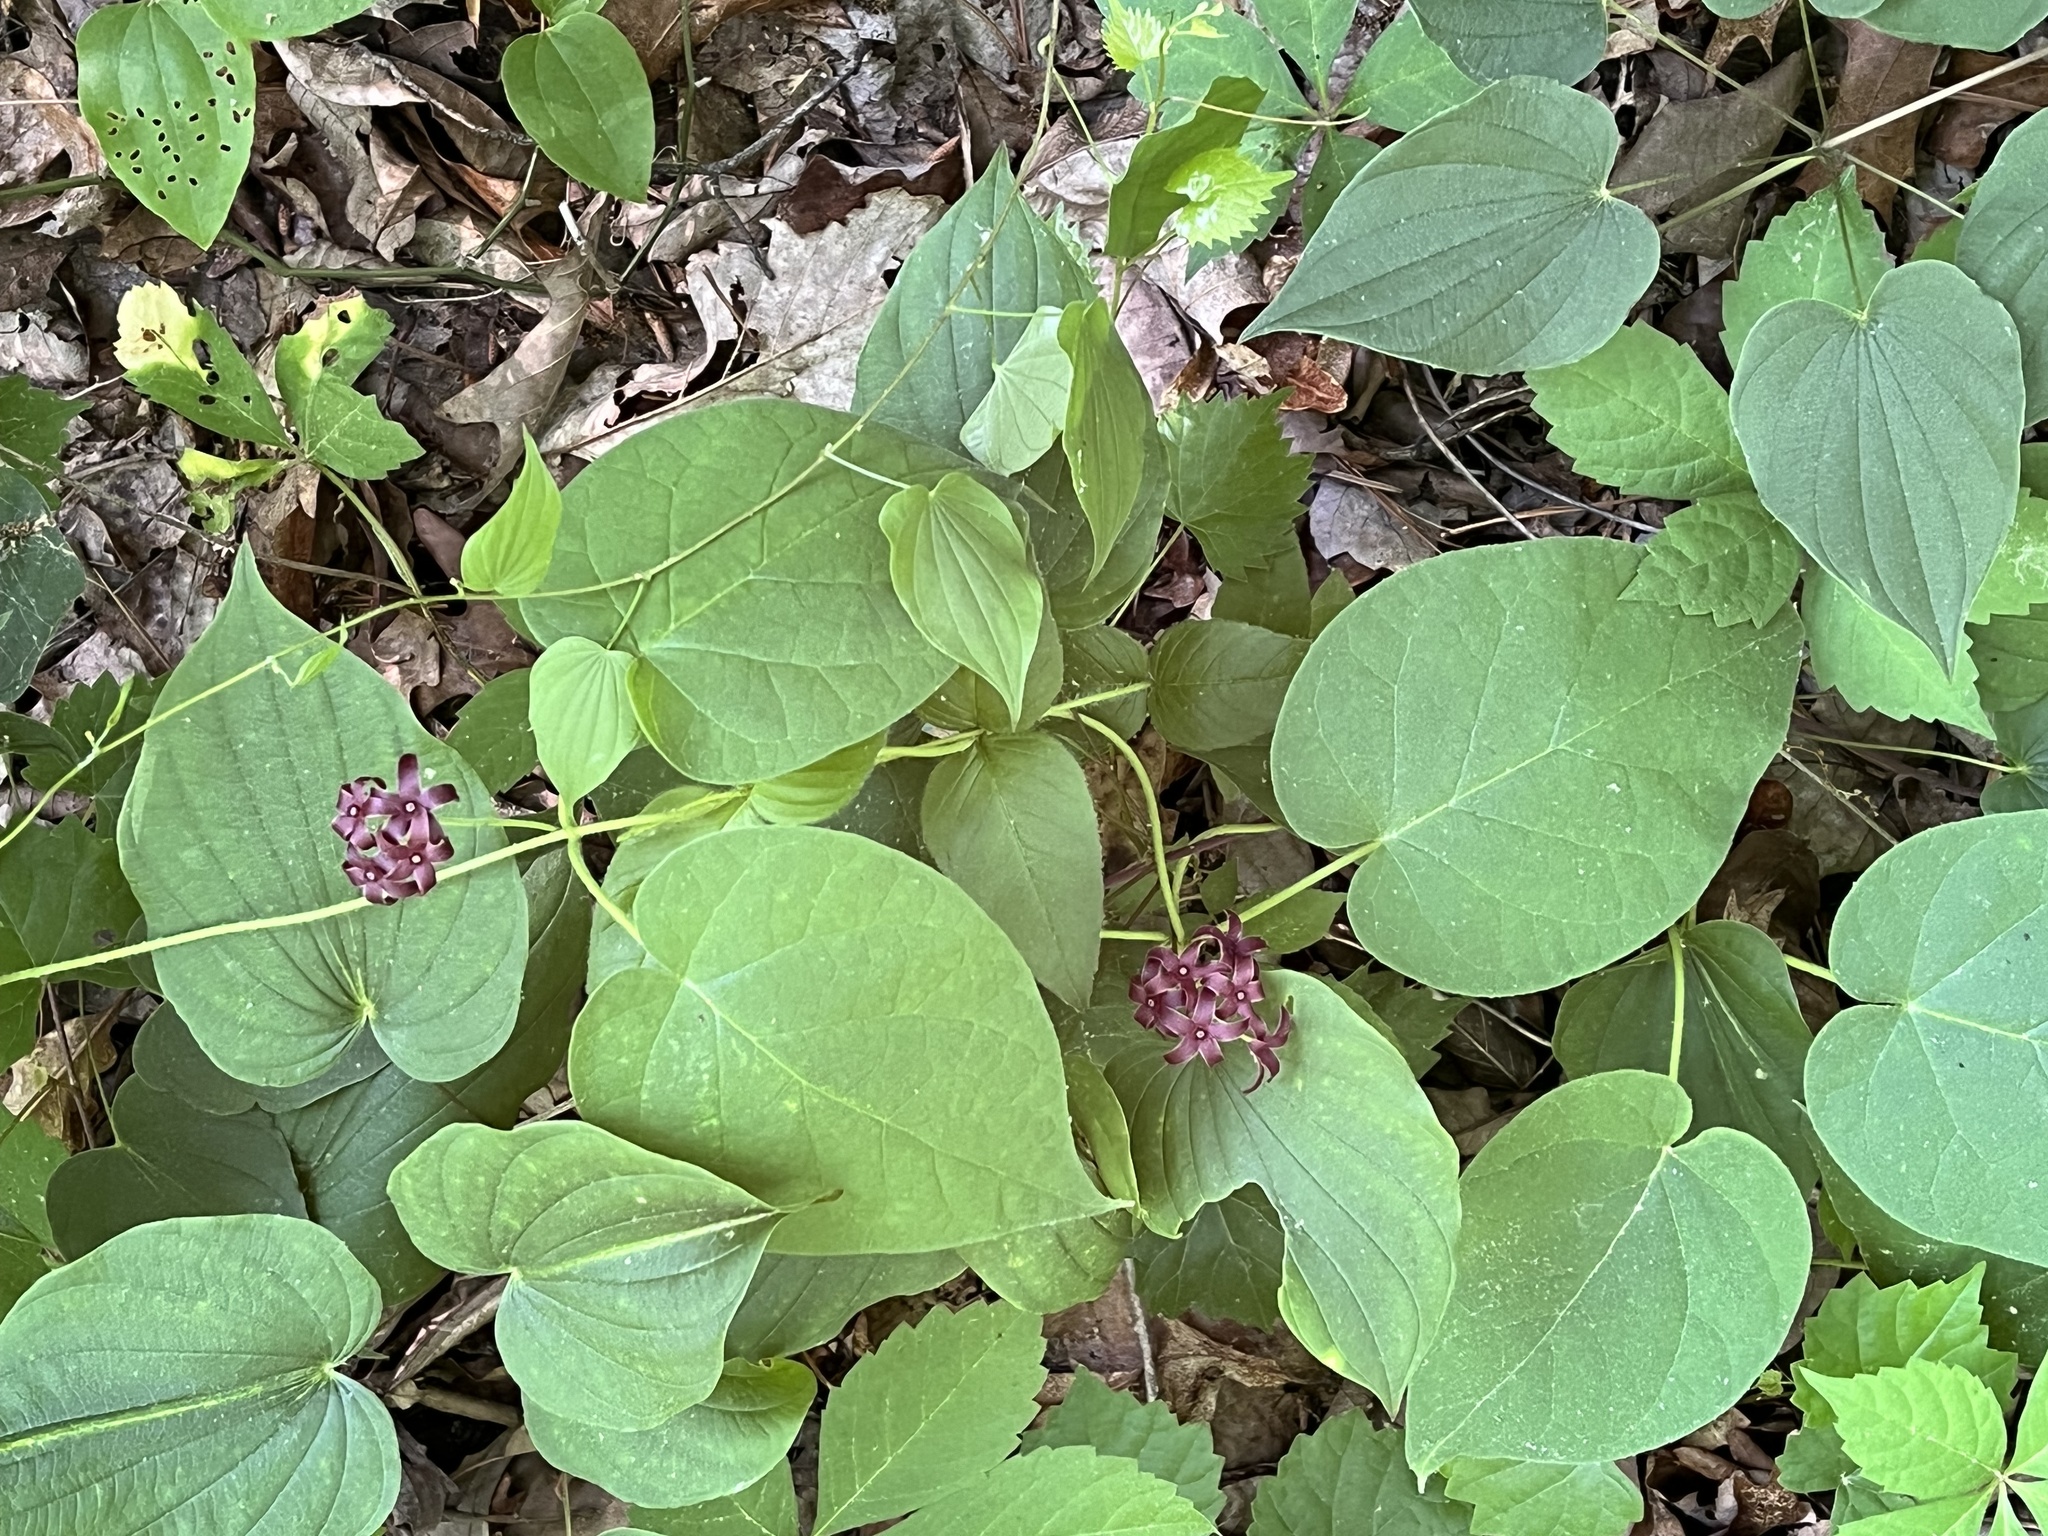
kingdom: Plantae
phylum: Tracheophyta
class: Magnoliopsida
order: Gentianales
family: Apocynaceae
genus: Matelea
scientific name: Matelea carolinensis
